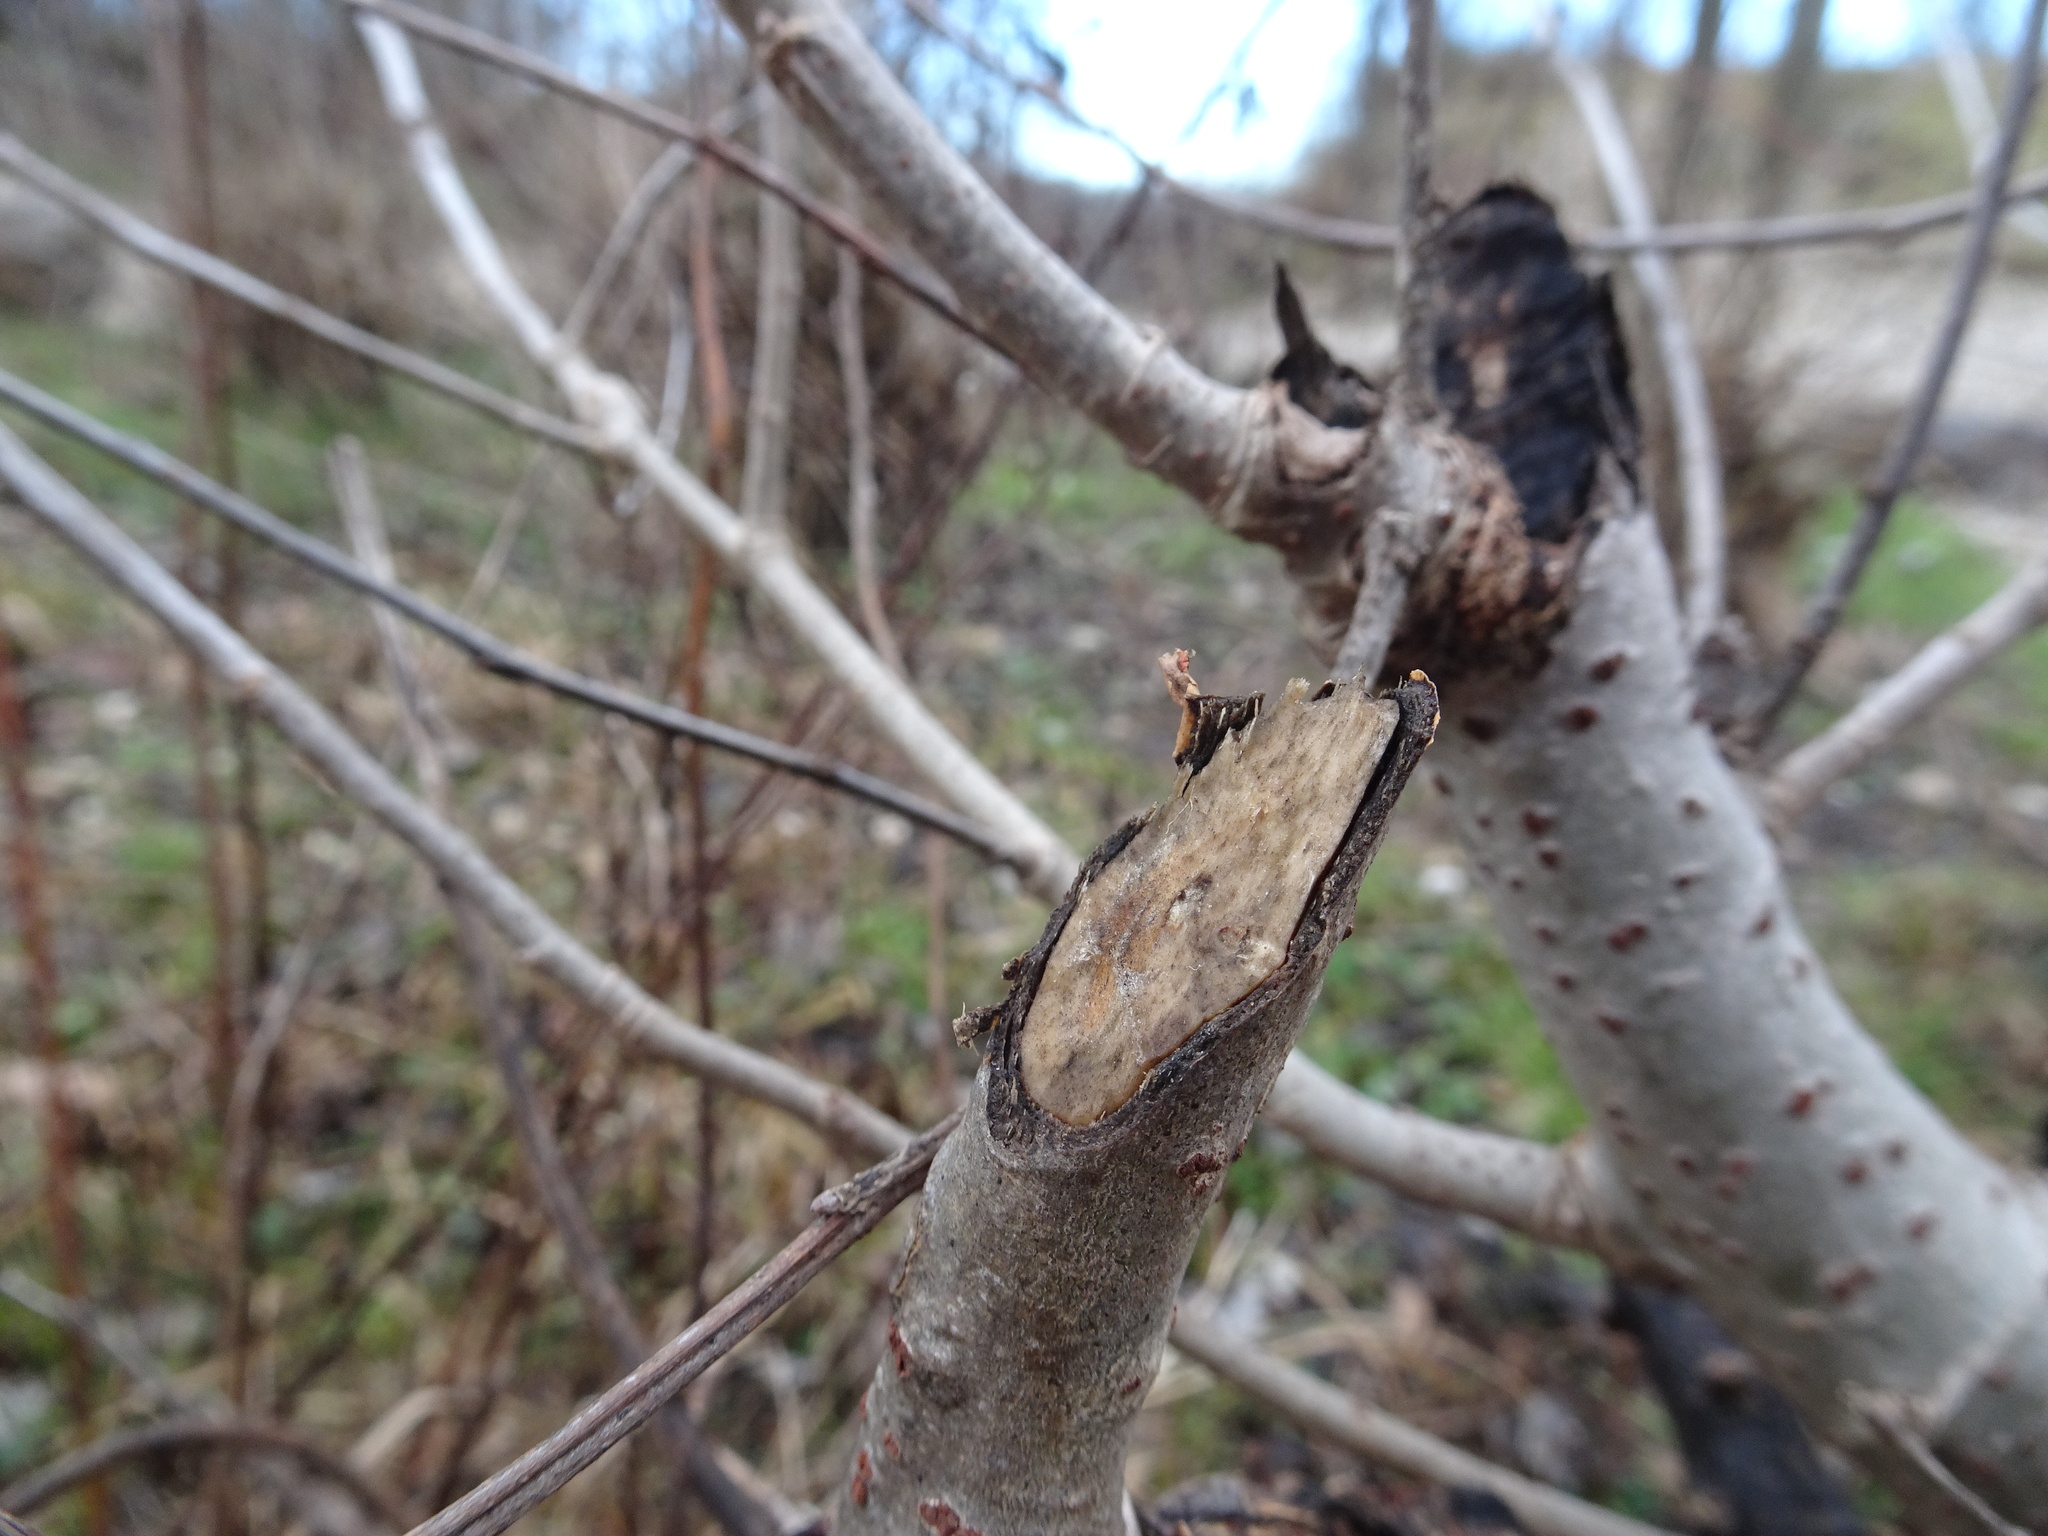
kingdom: Animalia
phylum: Chordata
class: Mammalia
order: Rodentia
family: Castoridae
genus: Castor
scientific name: Castor fiber
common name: Eurasian beaver
